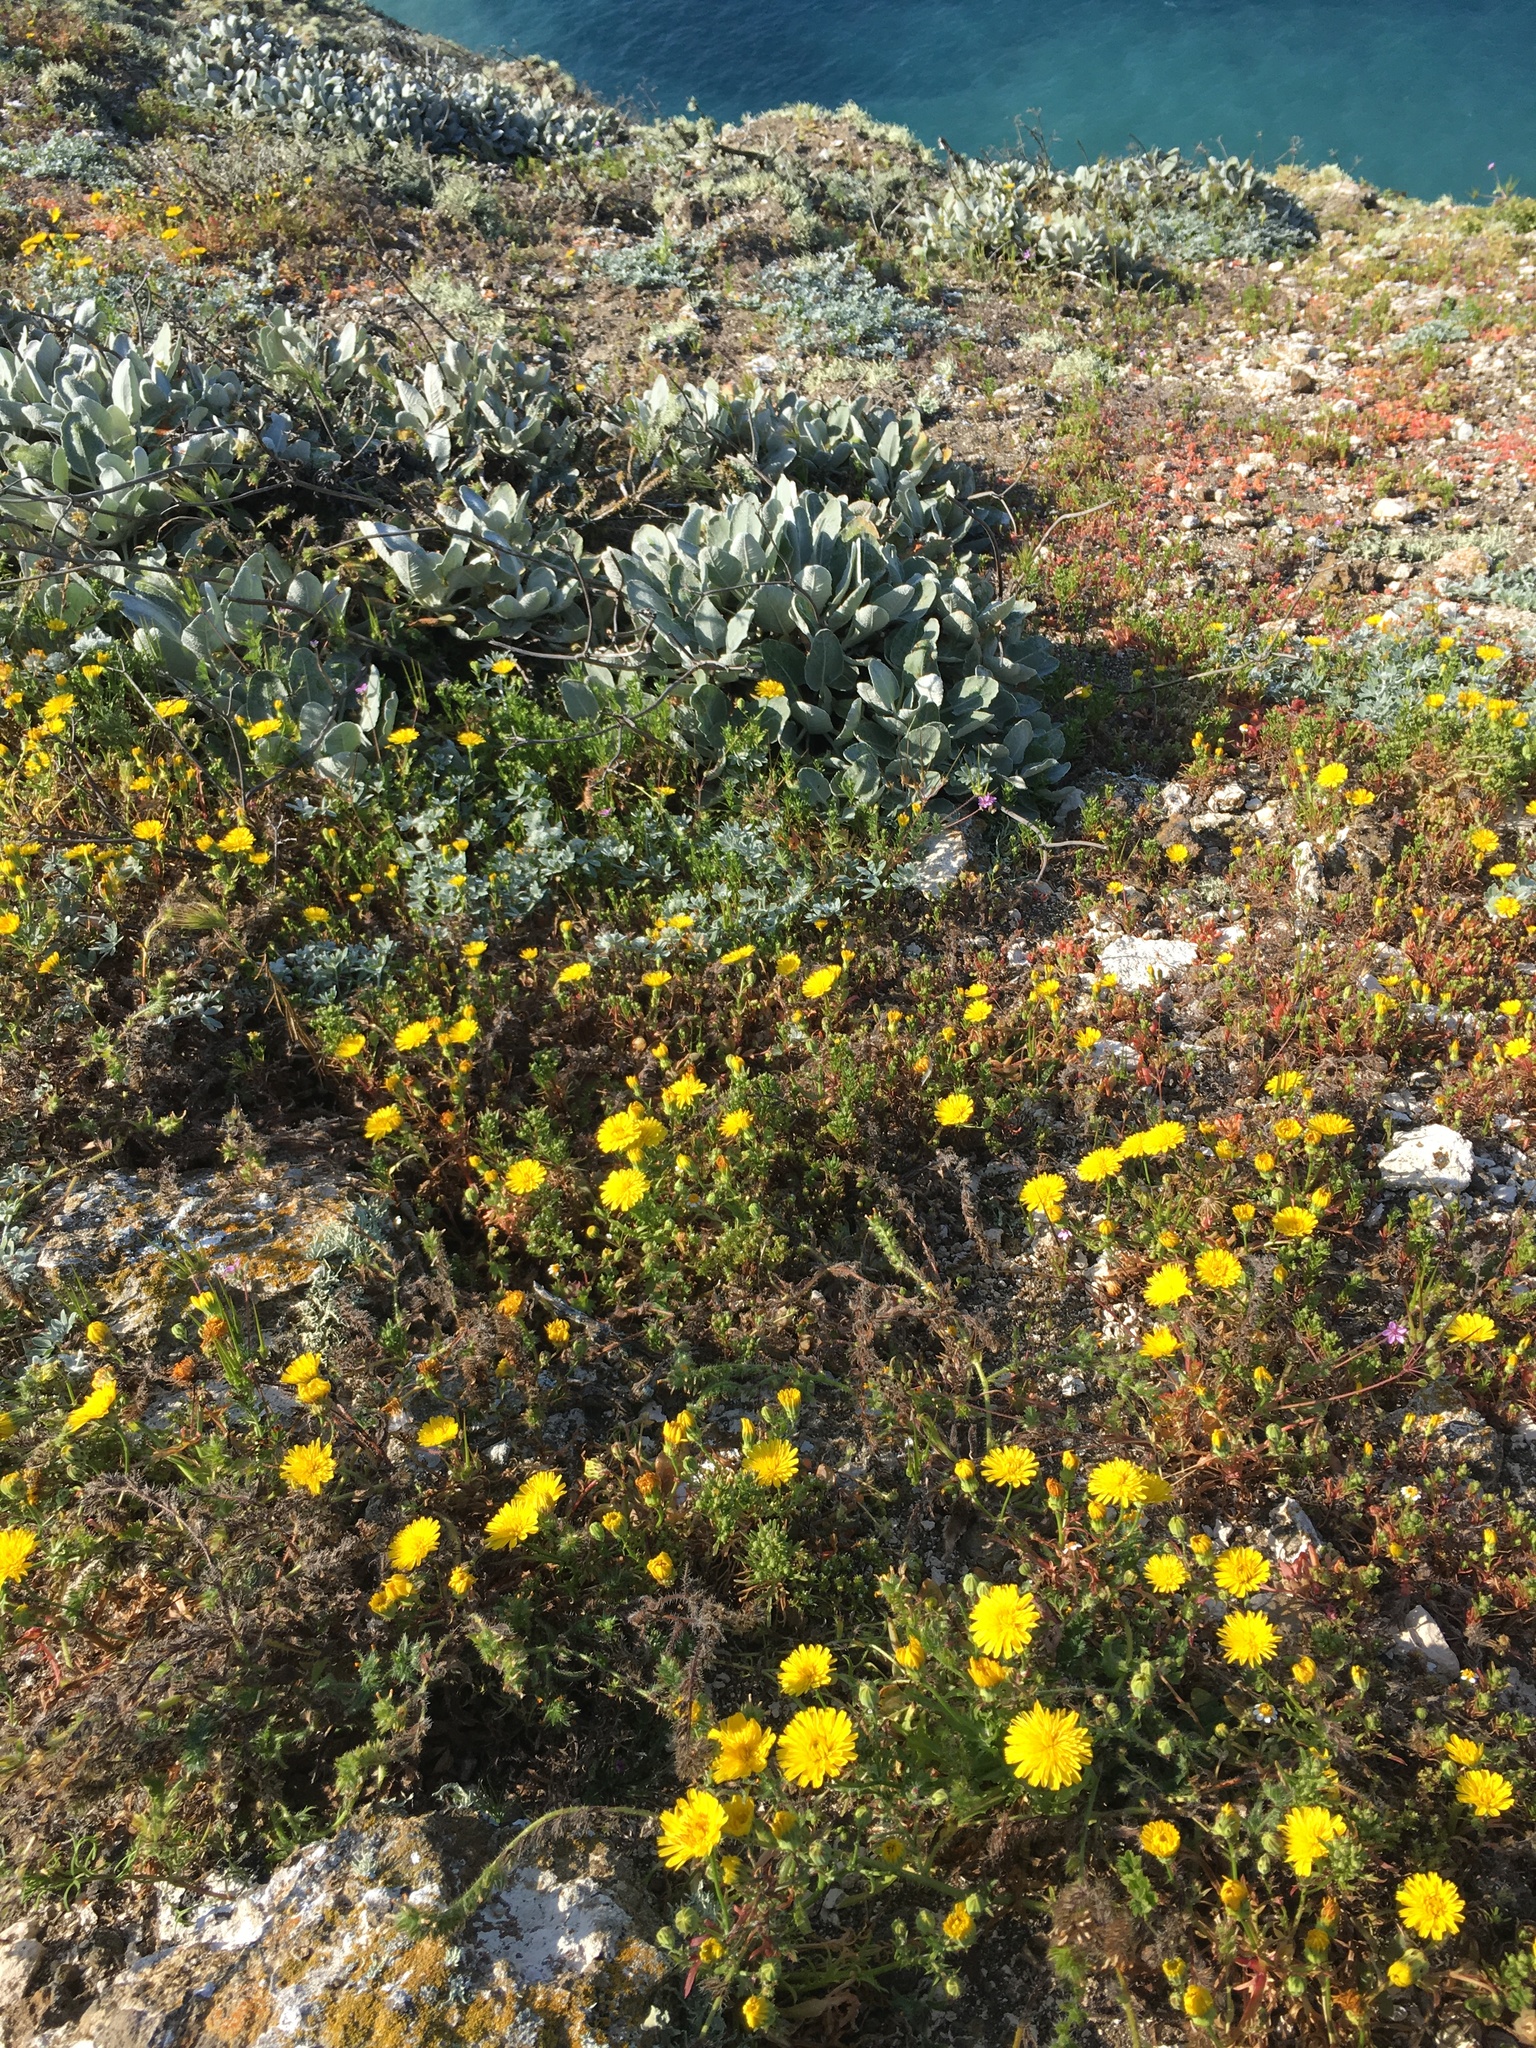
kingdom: Plantae
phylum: Tracheophyta
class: Magnoliopsida
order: Caryophyllales
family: Polygonaceae
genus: Eriogonum
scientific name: Eriogonum giganteum
